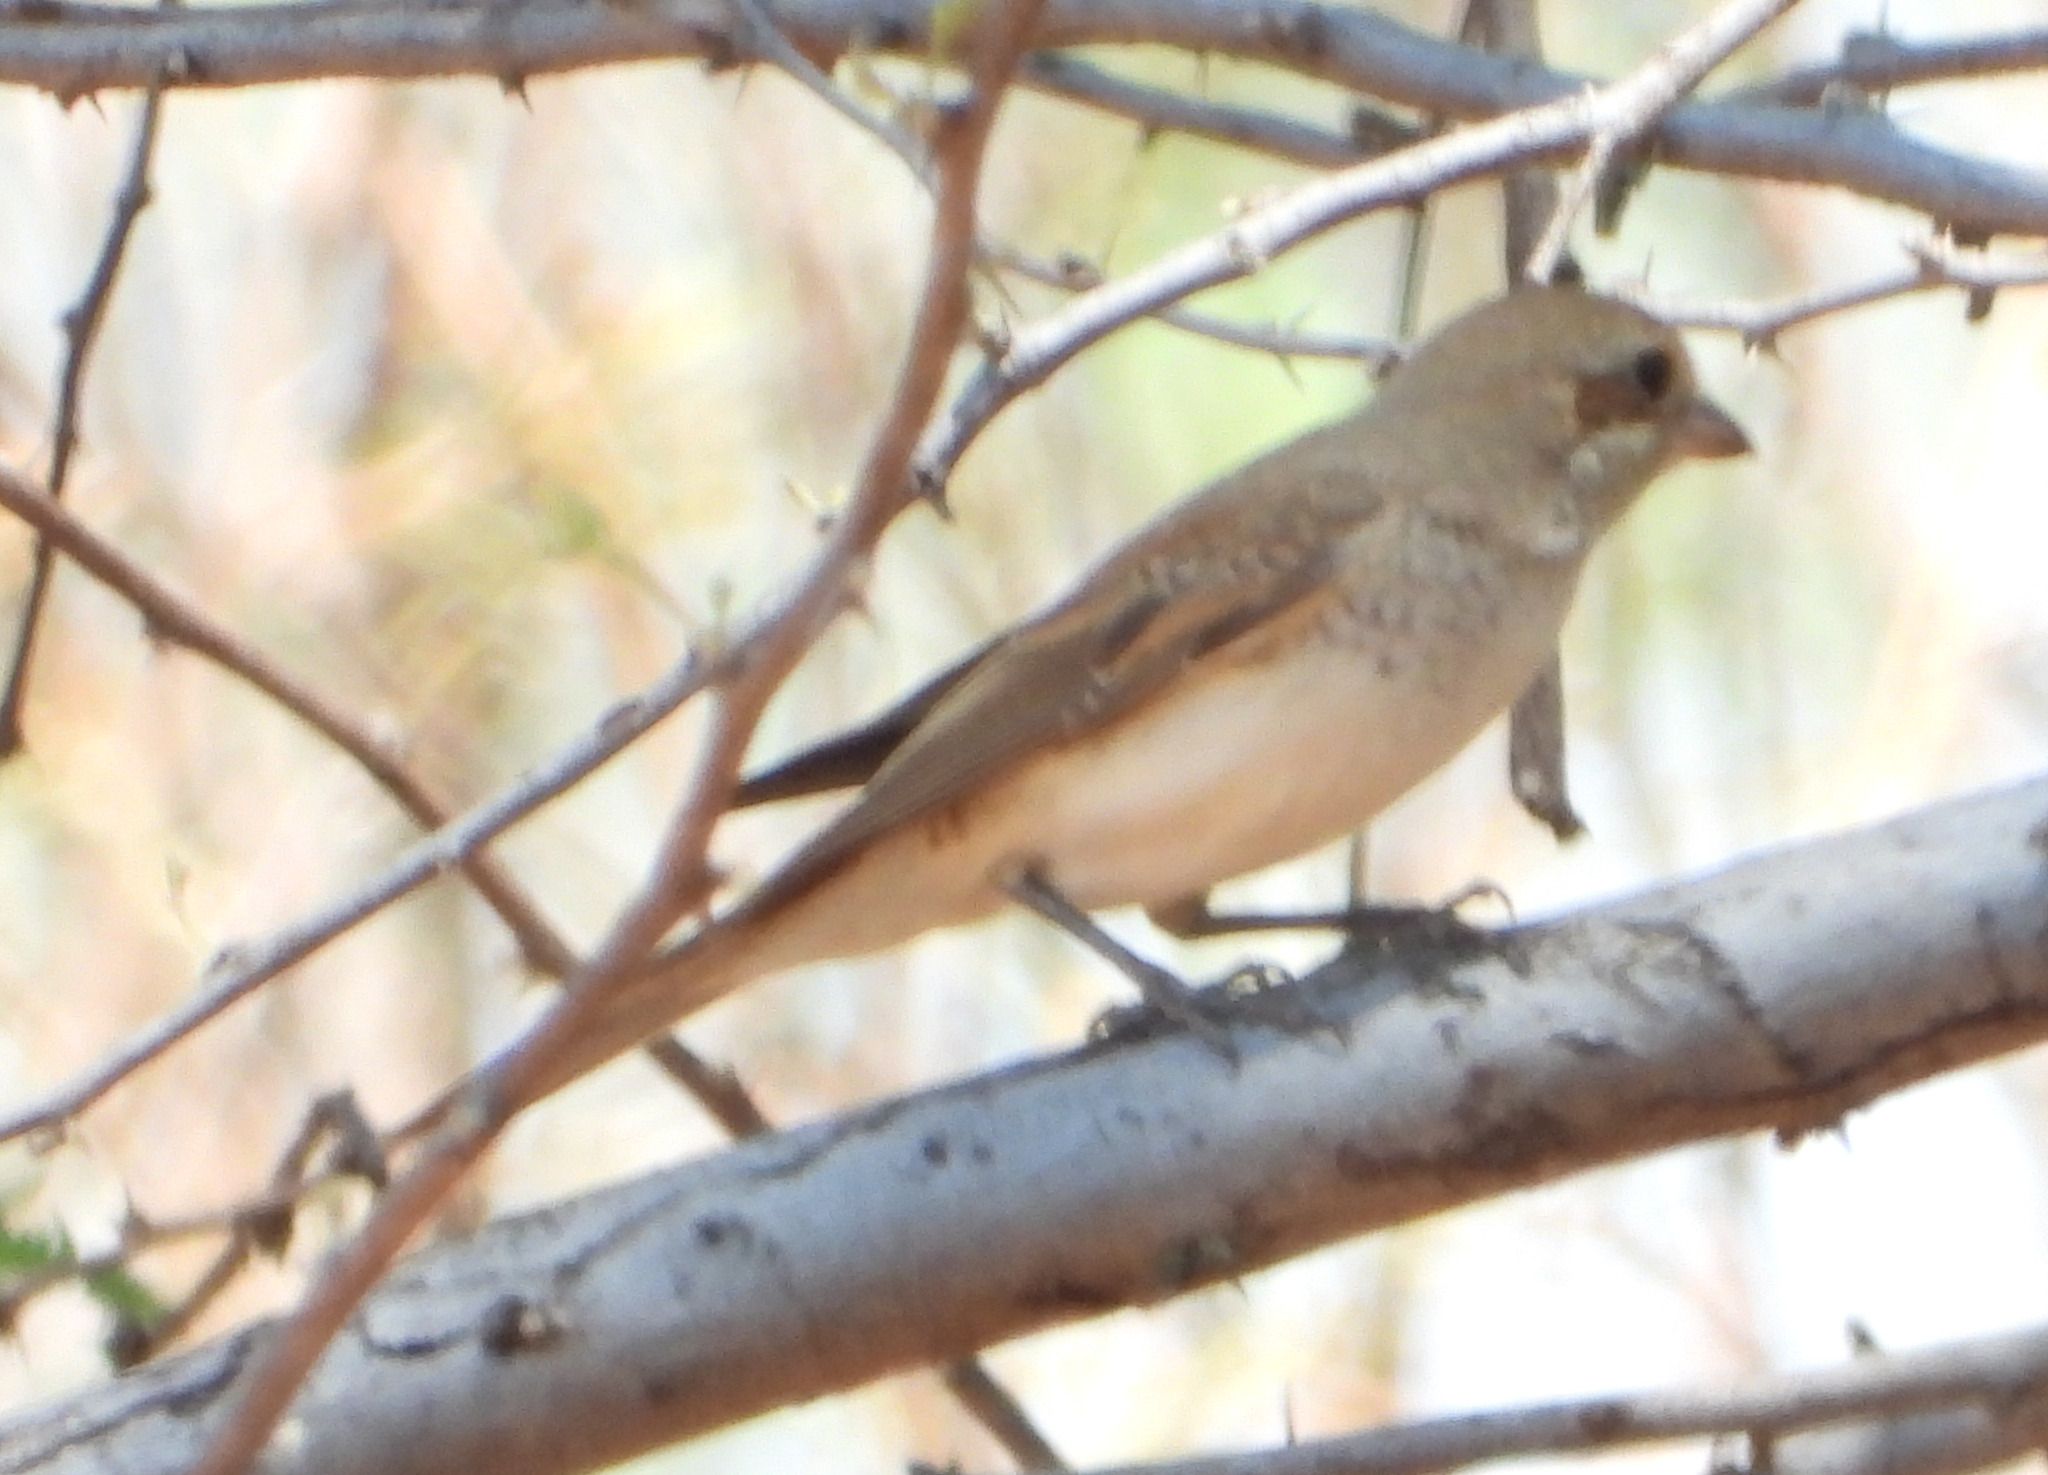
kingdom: Animalia
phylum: Chordata
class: Aves
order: Passeriformes
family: Laniidae
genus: Lanius
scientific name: Lanius collurio
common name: Red-backed shrike
